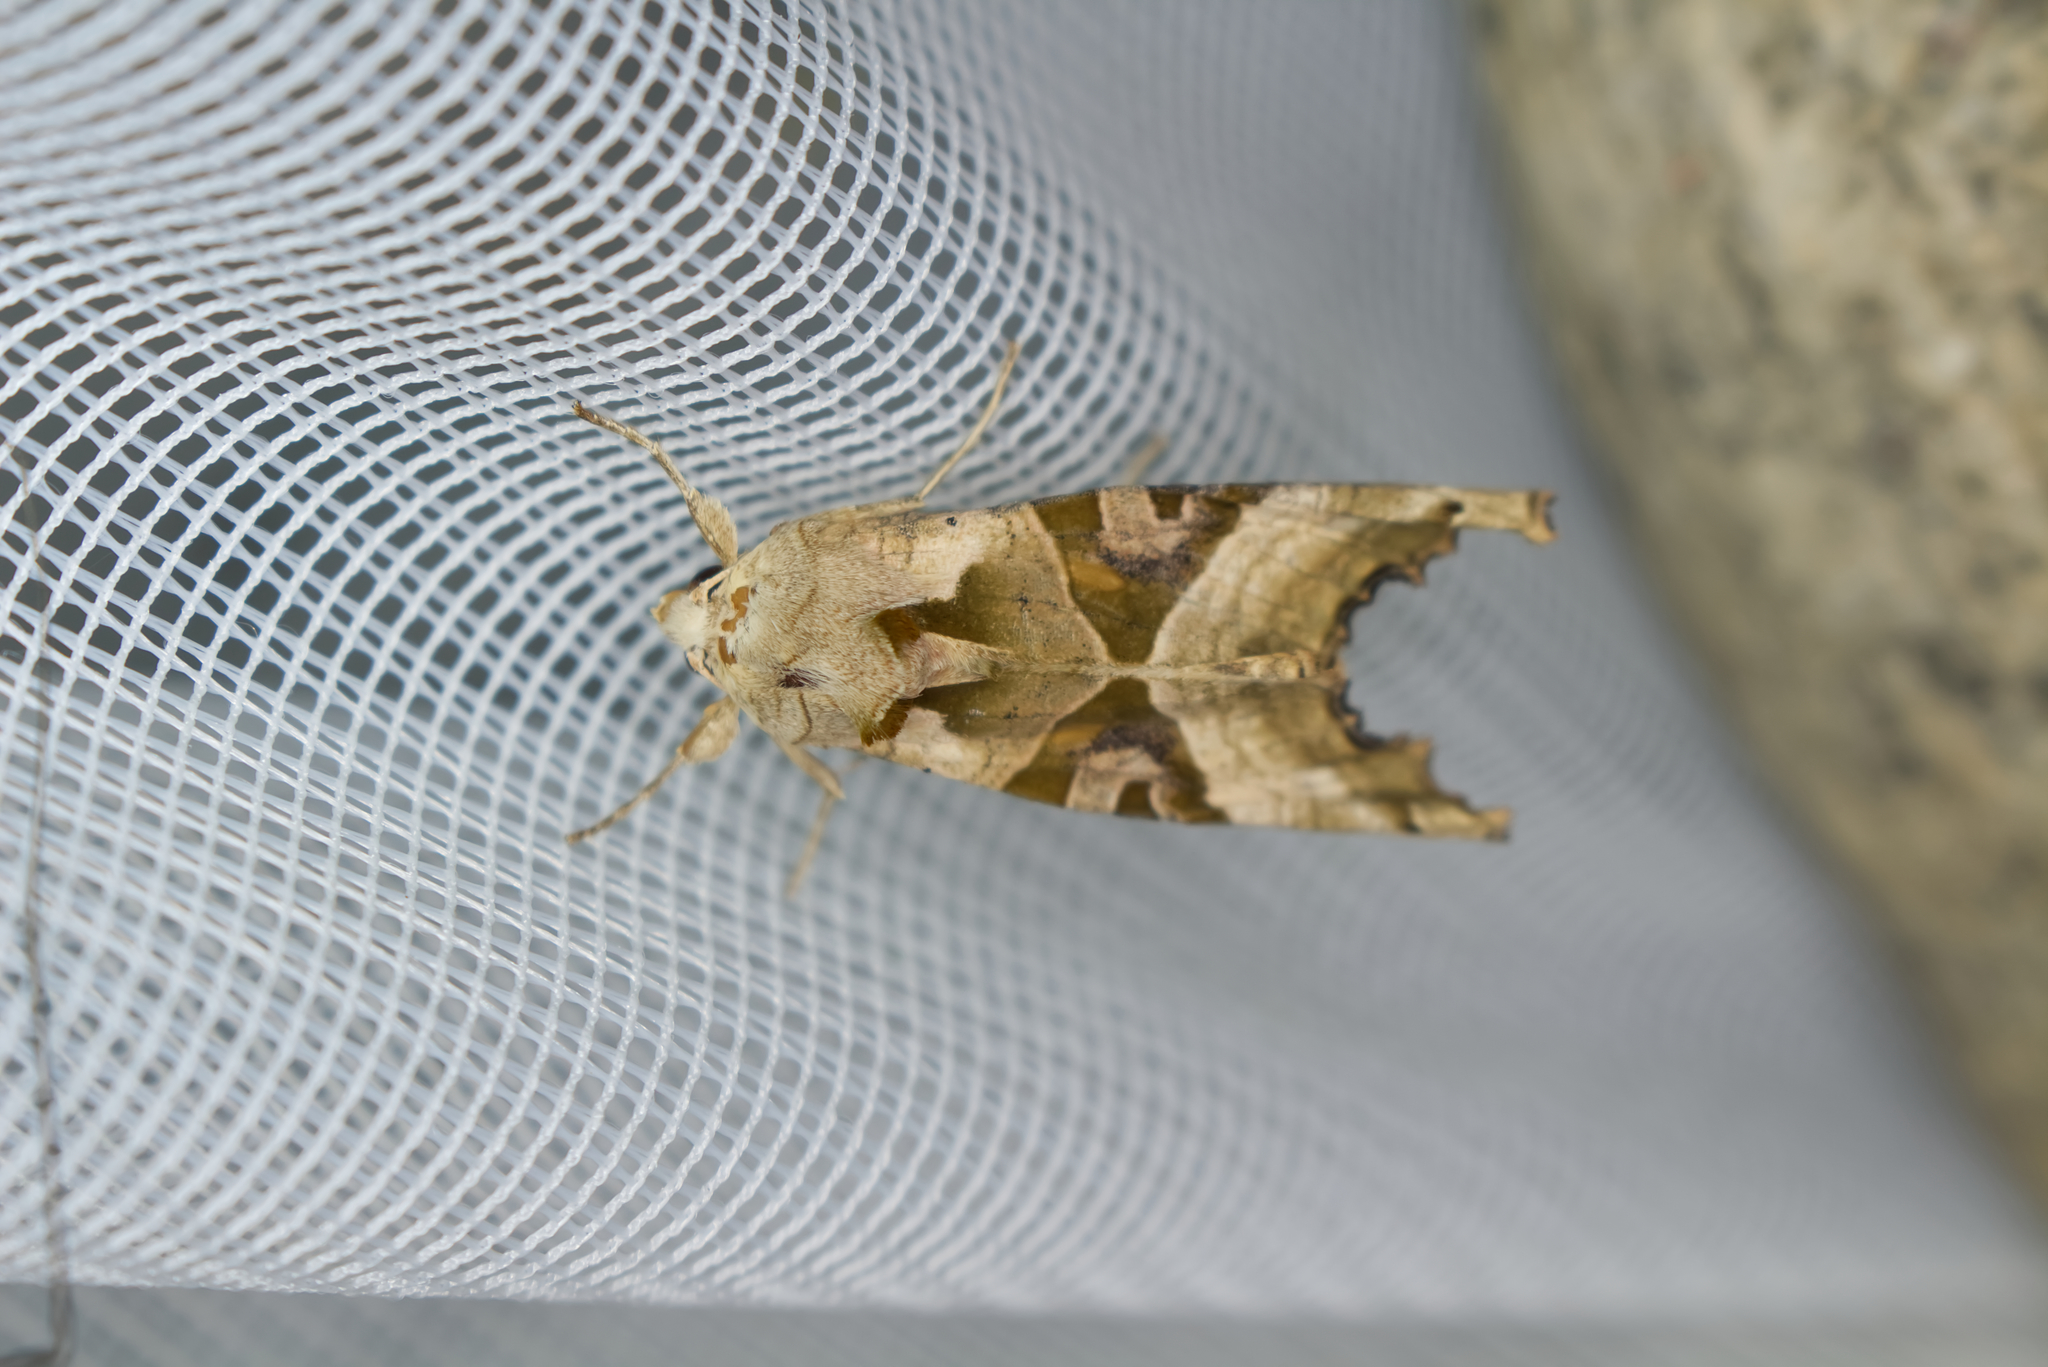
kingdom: Animalia
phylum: Arthropoda
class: Insecta
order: Lepidoptera
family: Noctuidae
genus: Phlogophora
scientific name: Phlogophora meticulosa
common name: Angle shades
